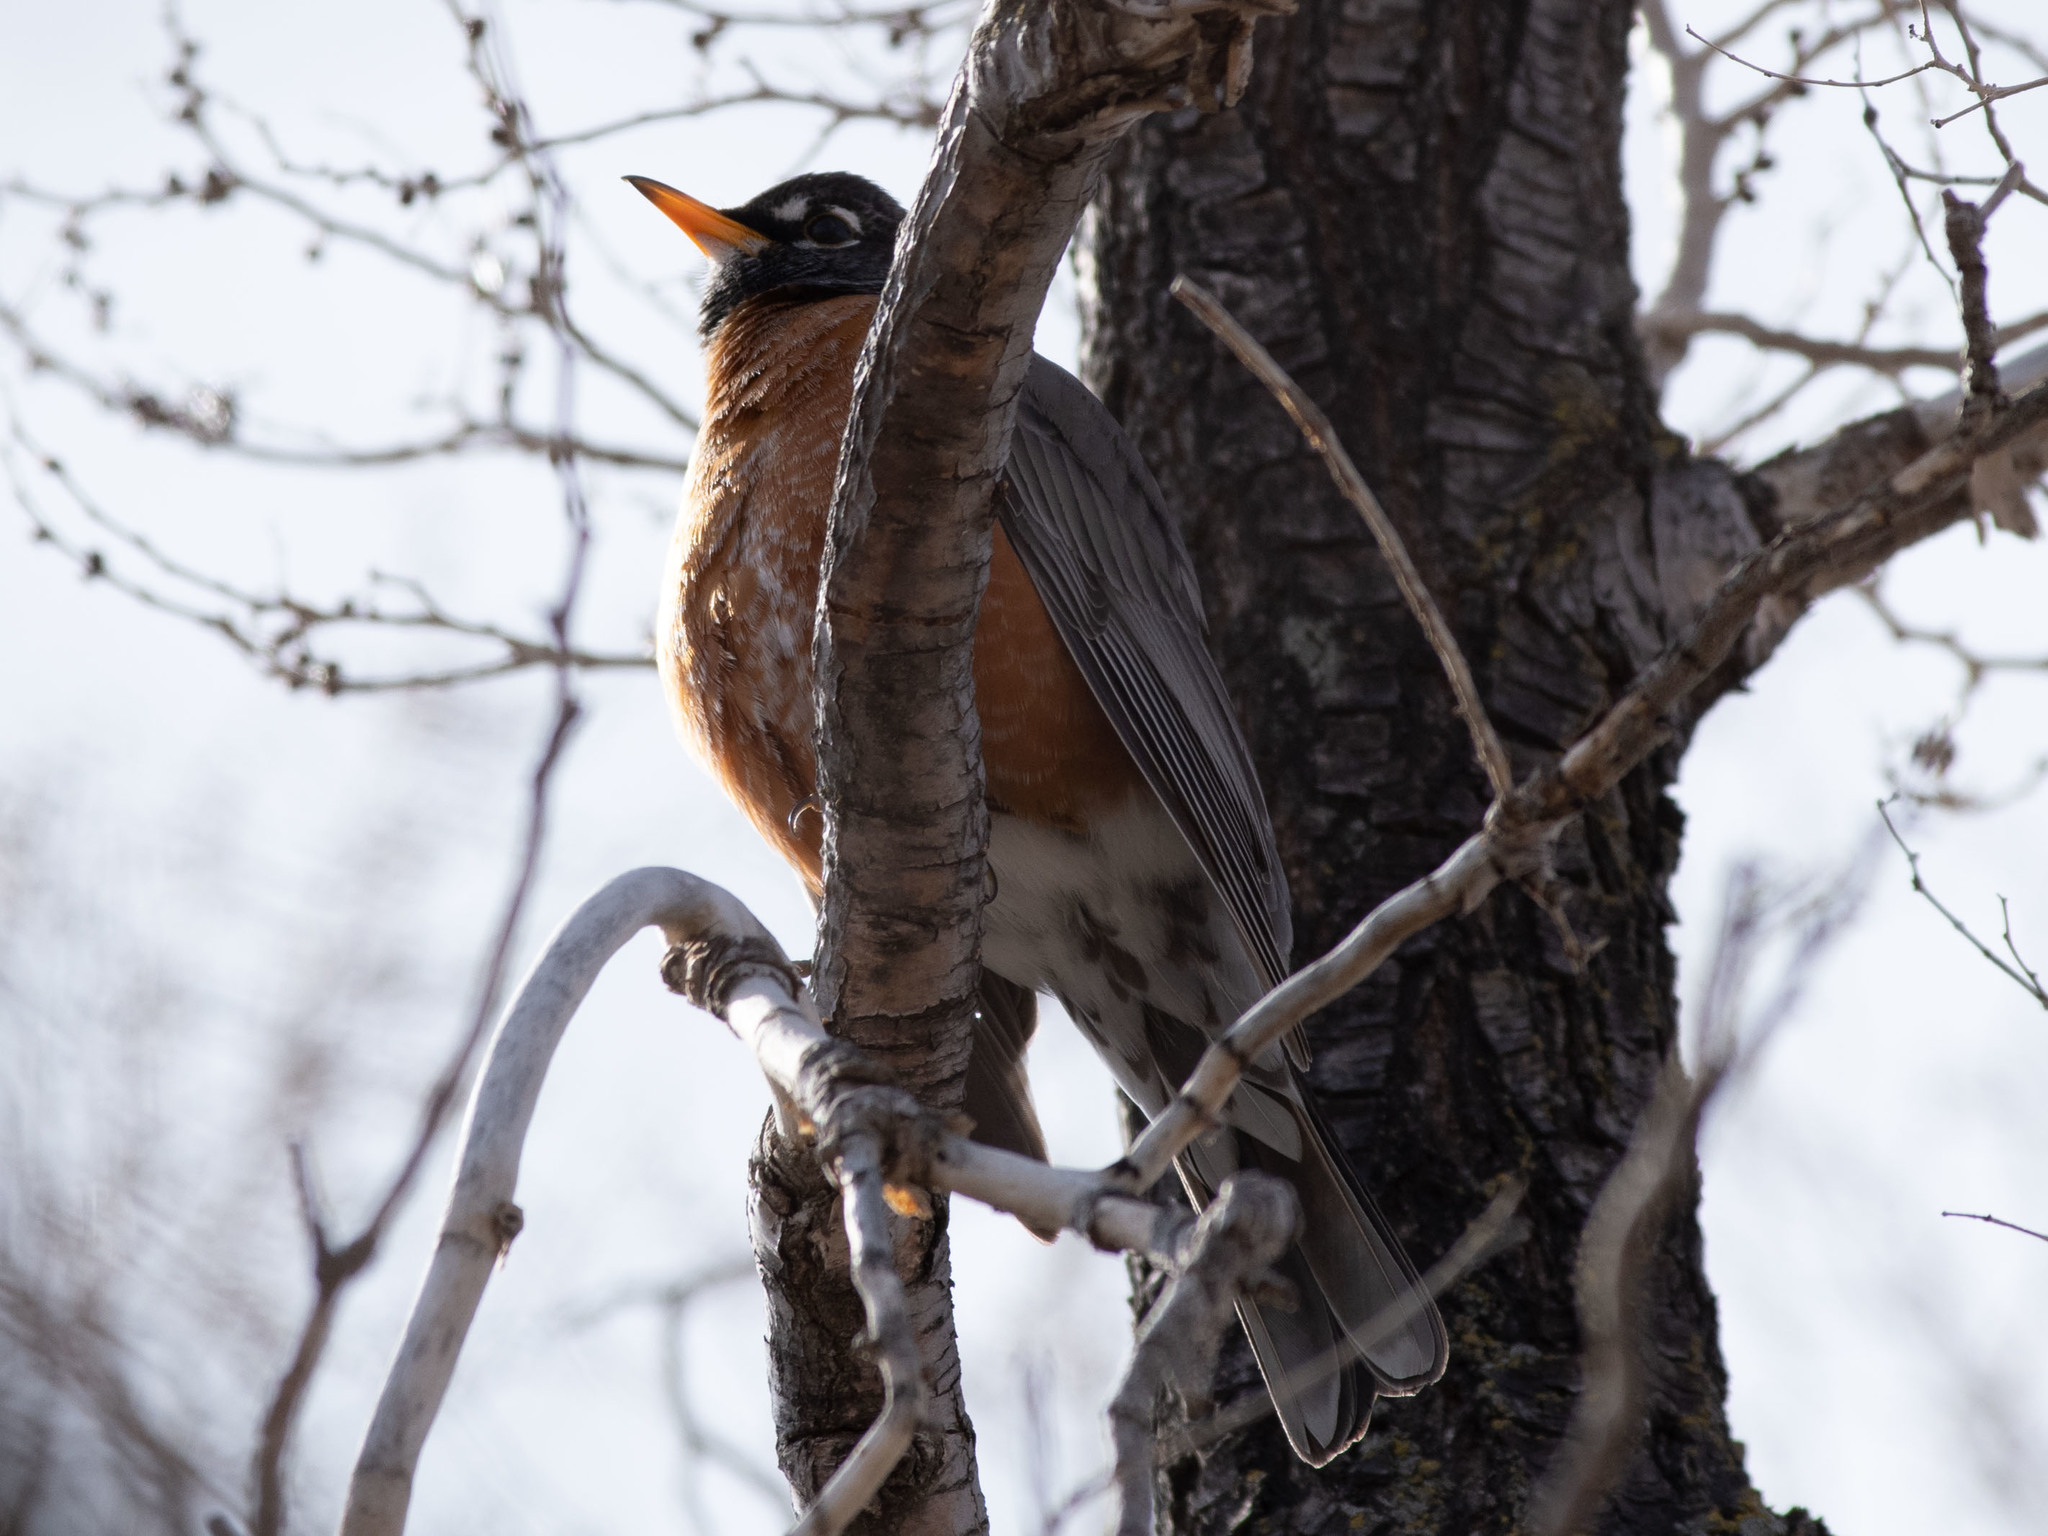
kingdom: Animalia
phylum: Chordata
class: Aves
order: Passeriformes
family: Turdidae
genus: Turdus
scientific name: Turdus migratorius
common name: American robin
